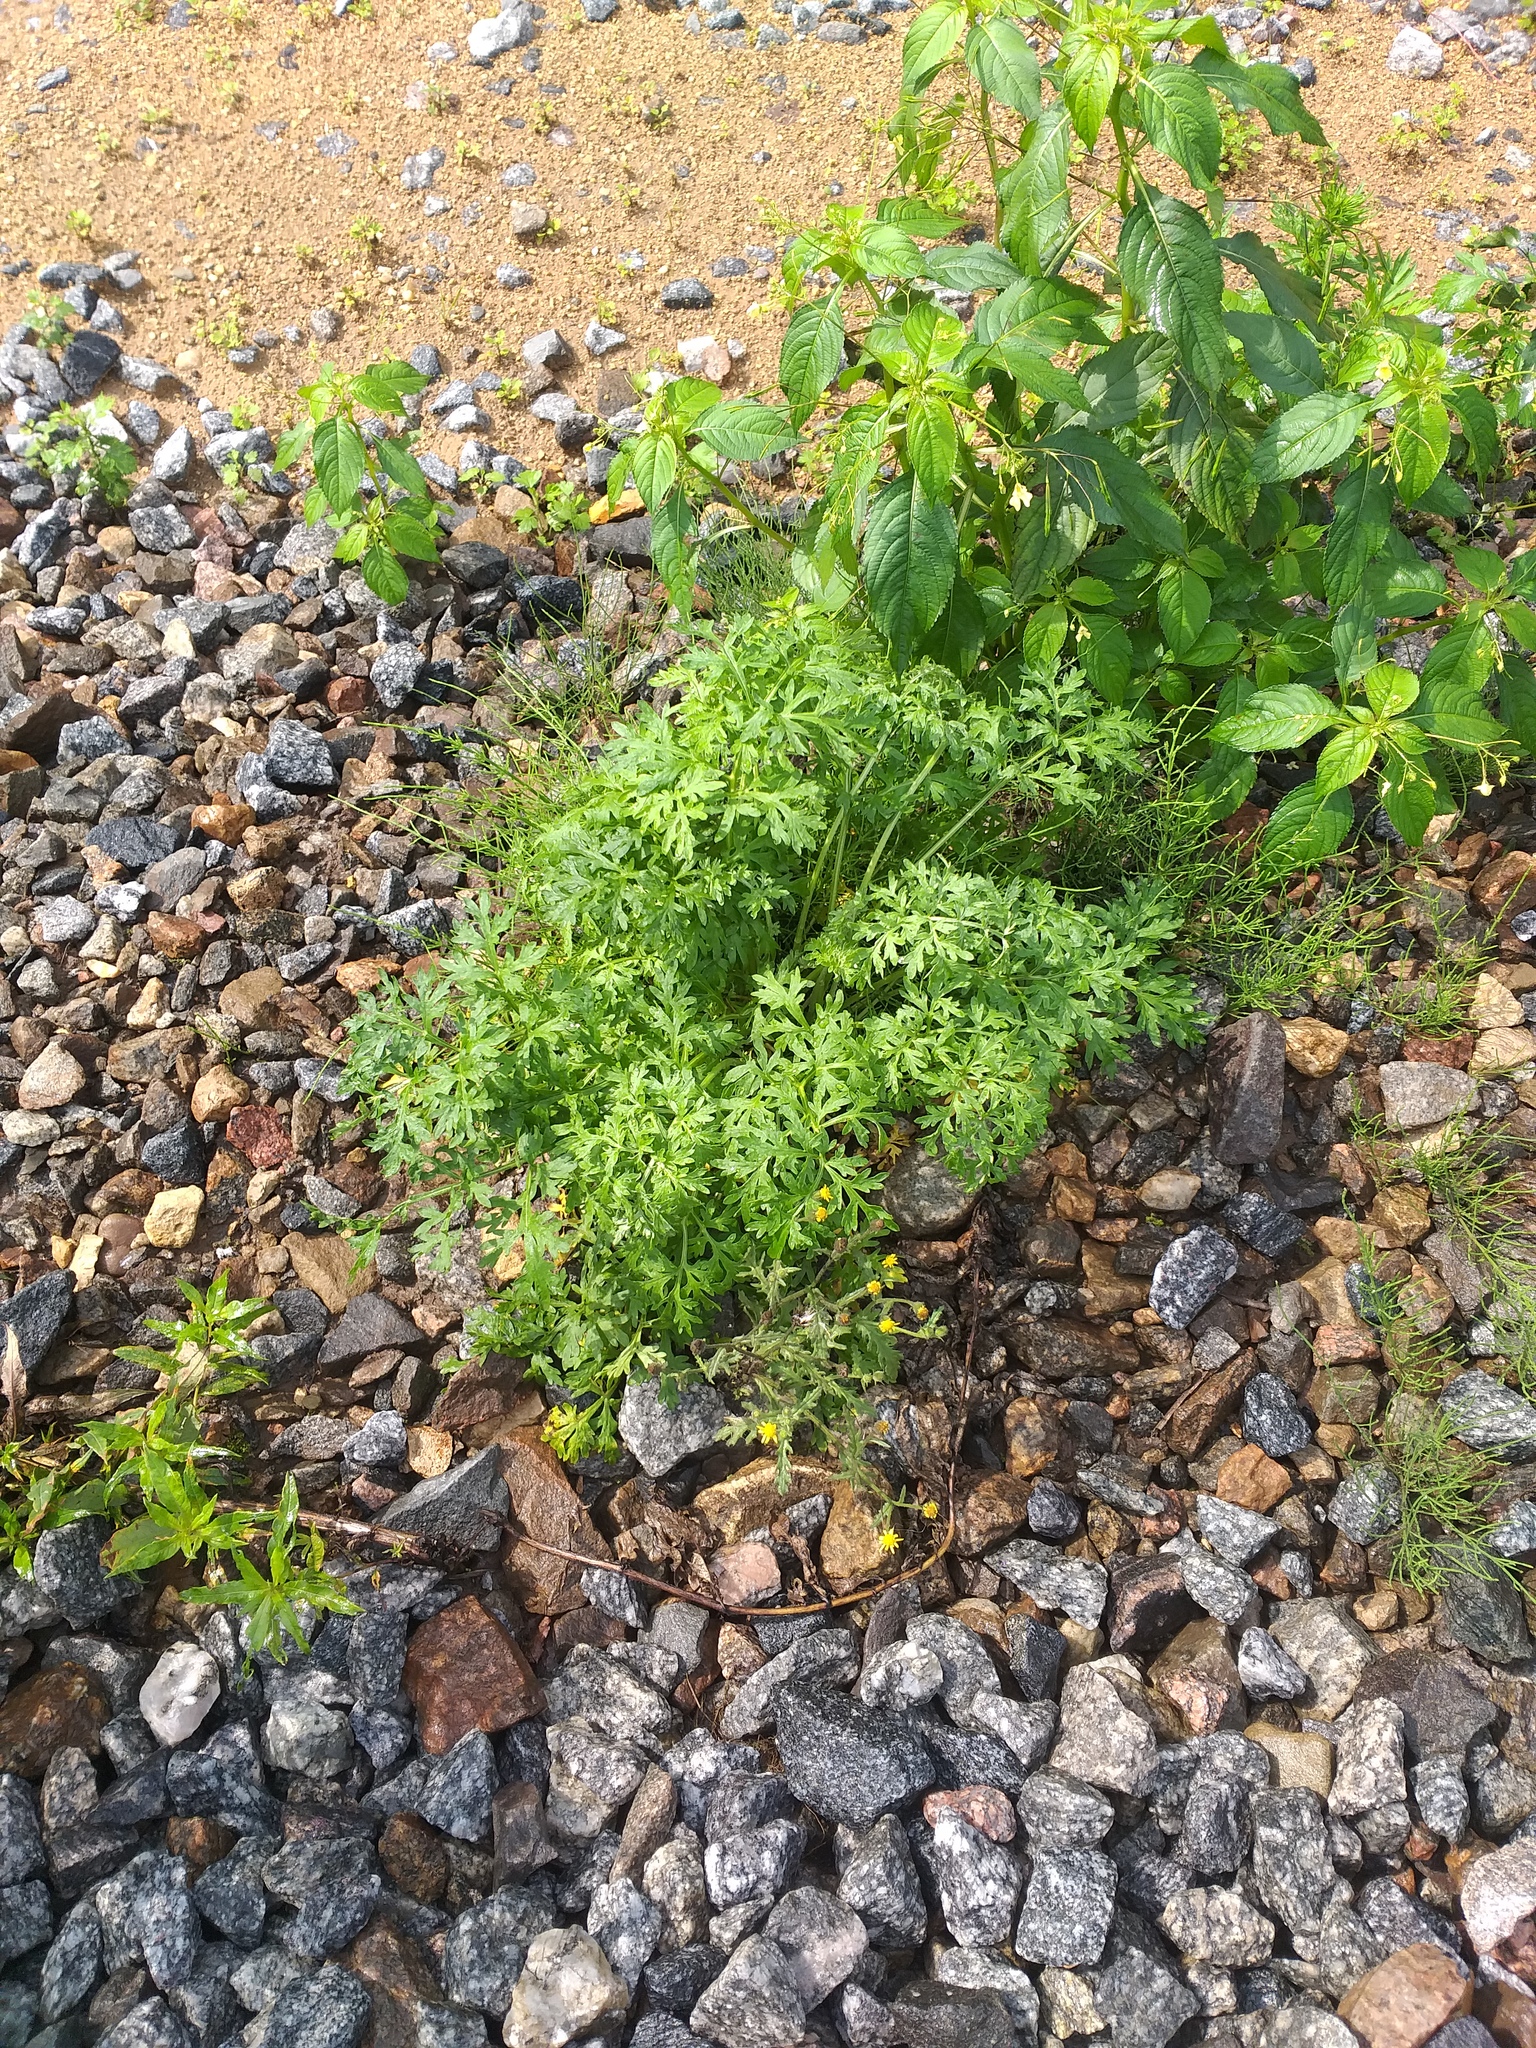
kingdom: Plantae
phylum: Tracheophyta
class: Magnoliopsida
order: Asterales
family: Asteraceae
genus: Artemisia
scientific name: Artemisia absinthium
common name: Wormwood
